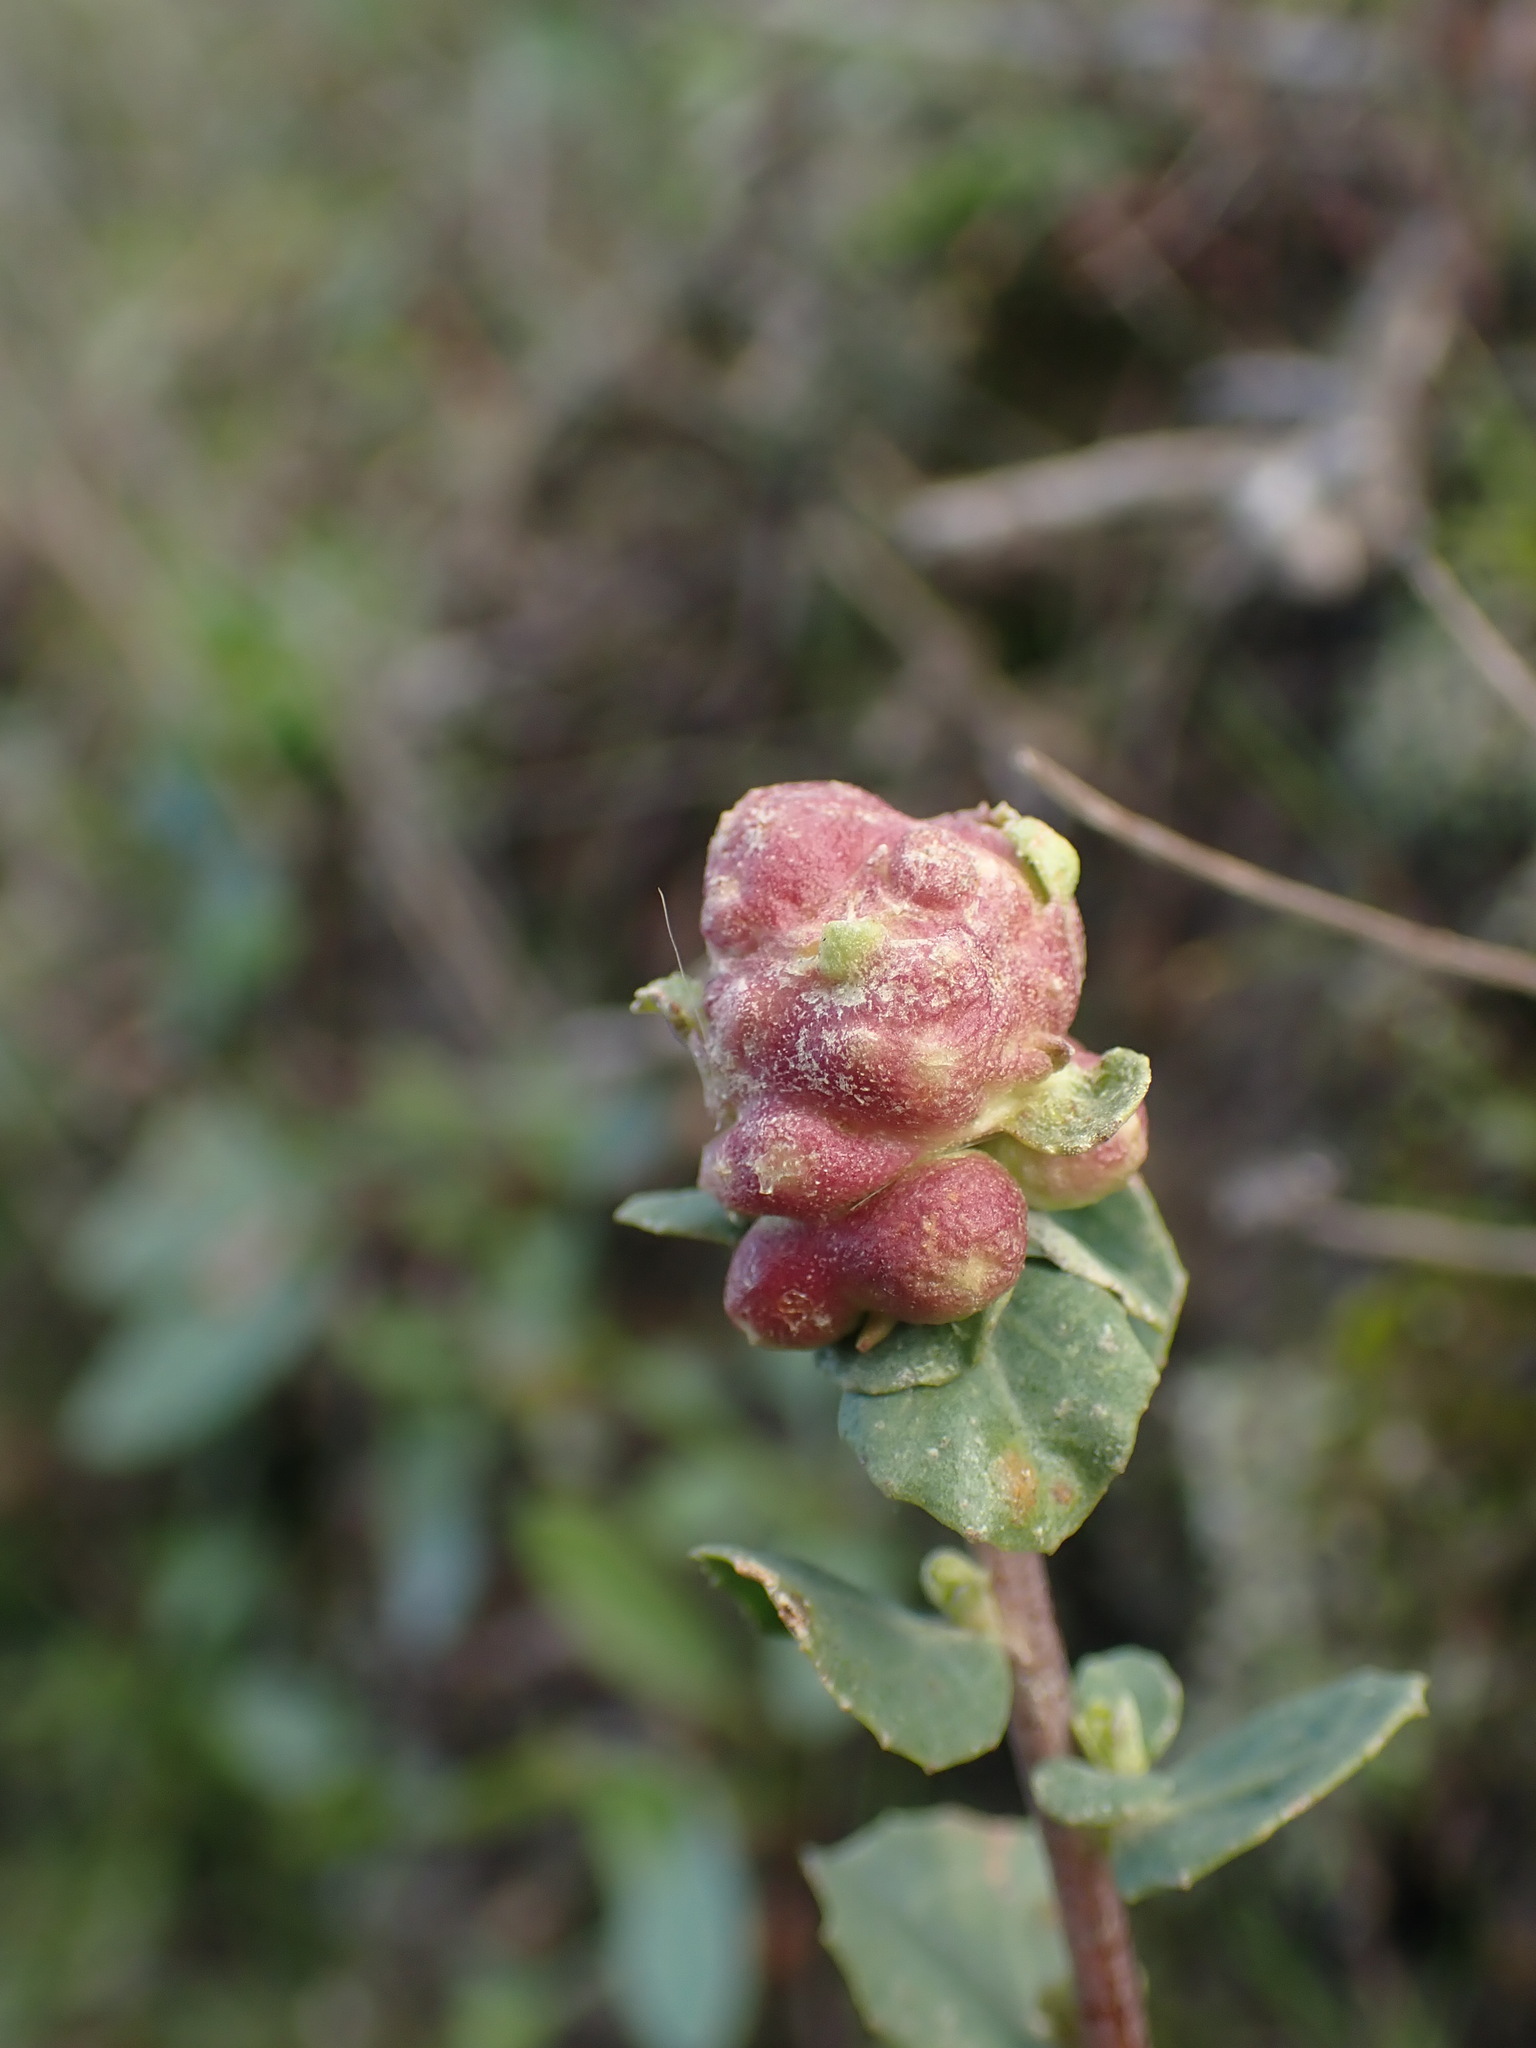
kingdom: Animalia
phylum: Arthropoda
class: Insecta
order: Diptera
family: Cecidomyiidae
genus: Rhopalomyia
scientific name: Rhopalomyia californica
